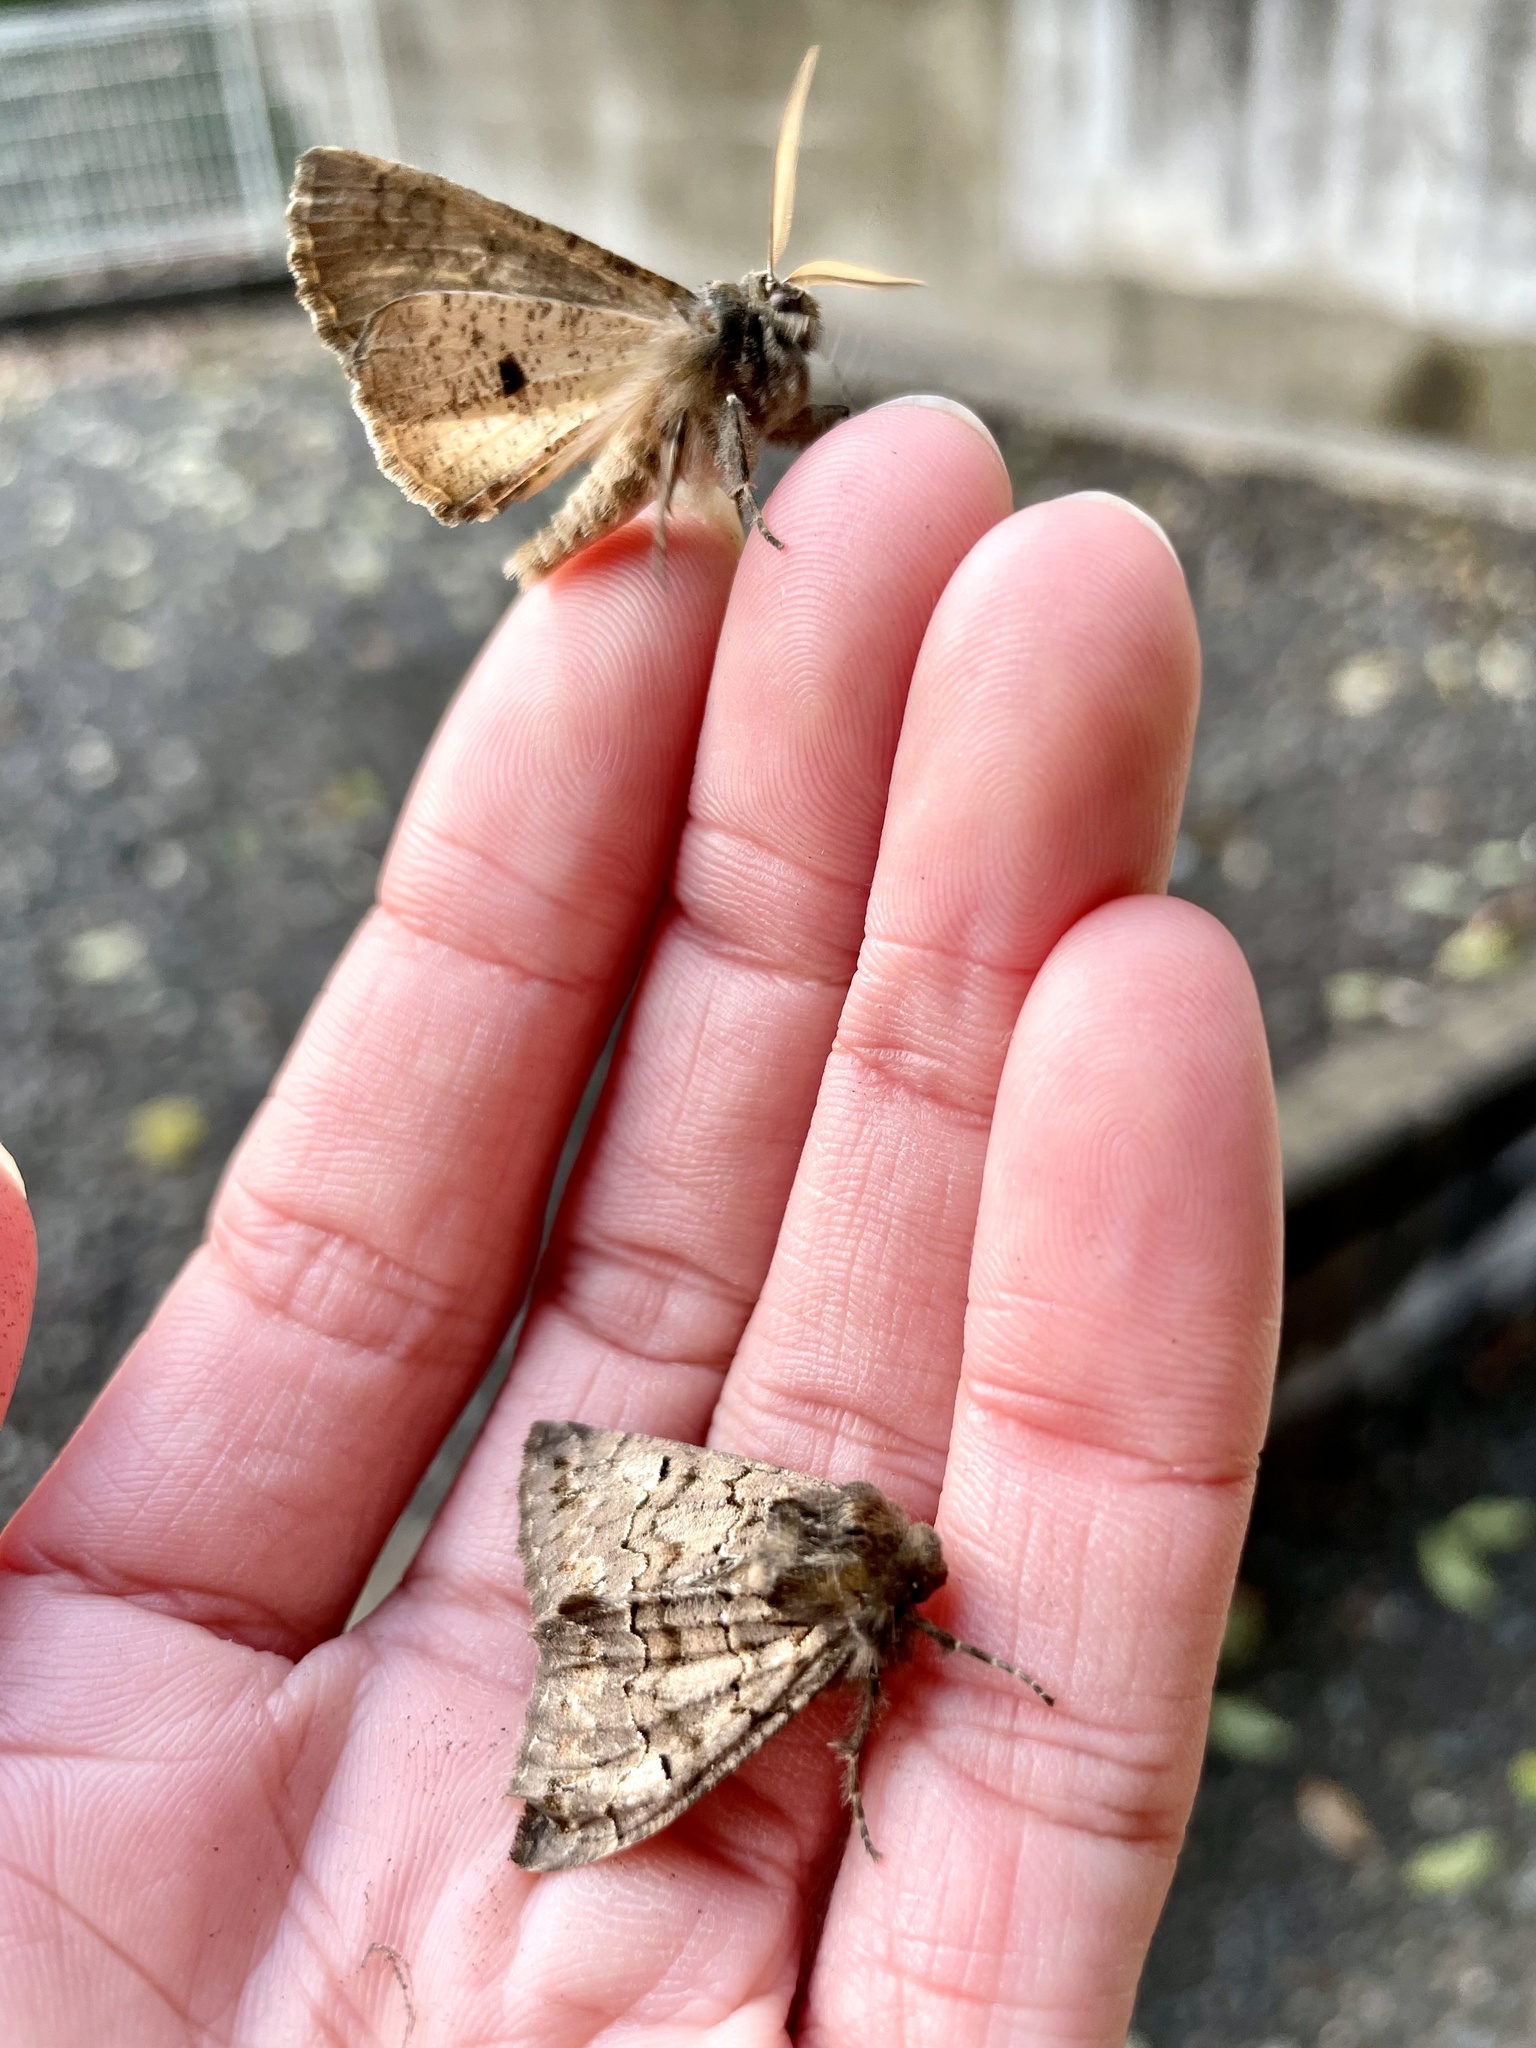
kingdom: Animalia
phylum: Arthropoda
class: Insecta
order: Lepidoptera
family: Geometridae
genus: Pachyligia
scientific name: Pachyligia dolosa
